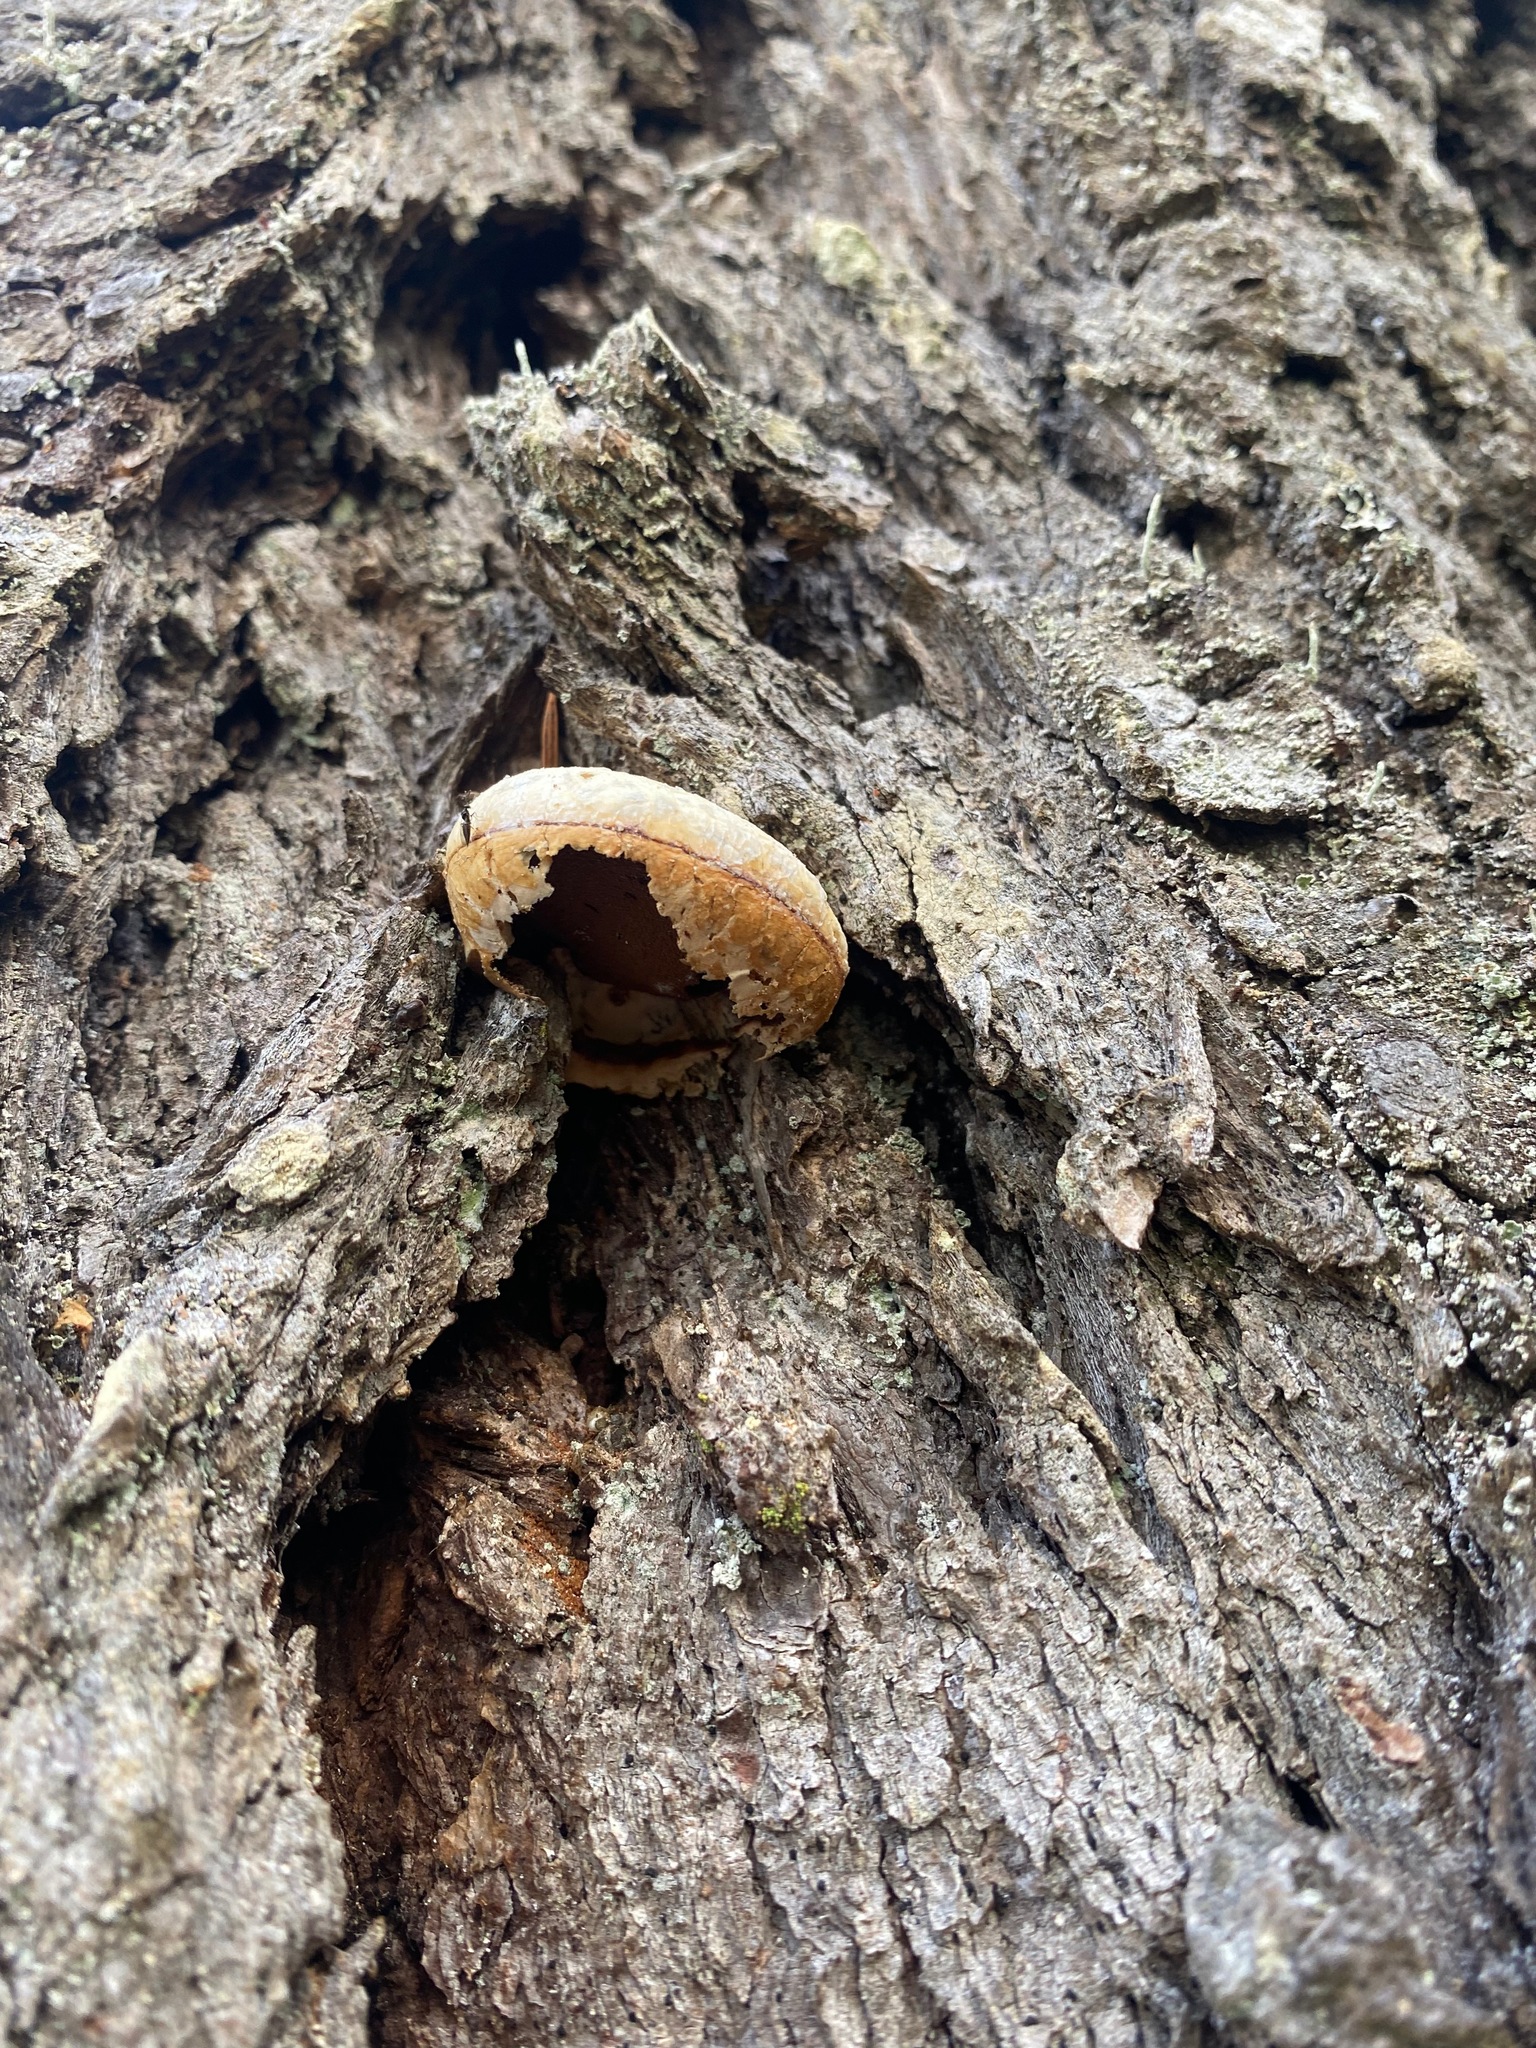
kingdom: Fungi
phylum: Basidiomycota
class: Agaricomycetes
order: Polyporales
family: Polyporaceae
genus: Cryptoporus
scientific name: Cryptoporus volvatus
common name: Veiled polypore
